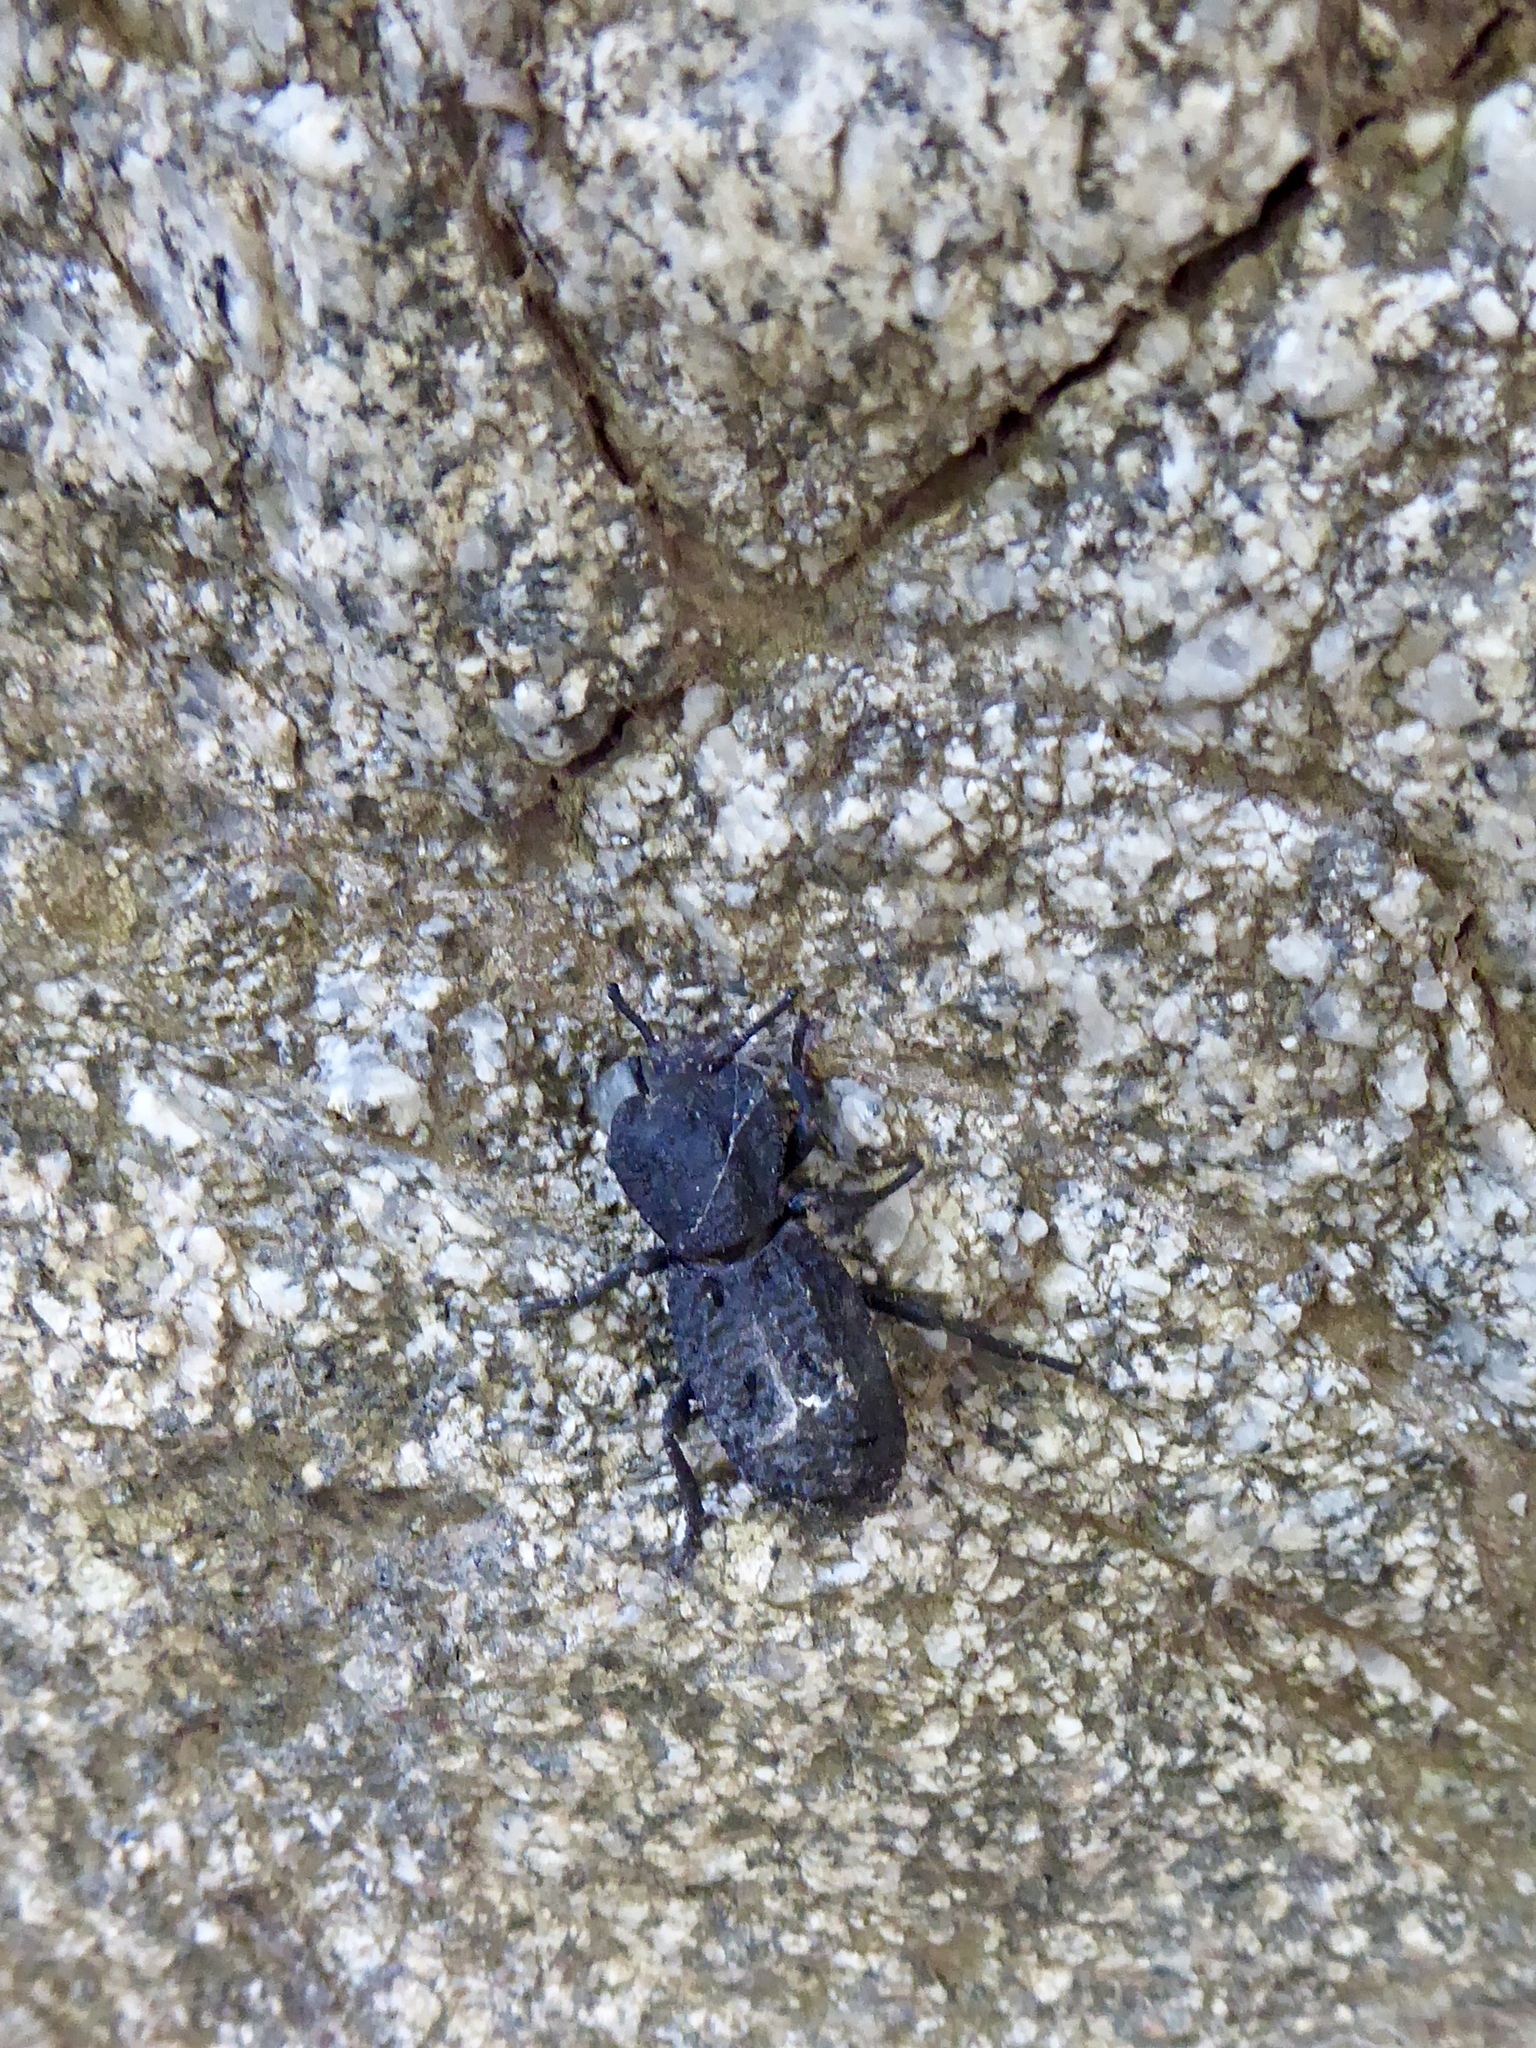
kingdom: Animalia
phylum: Arthropoda
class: Insecta
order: Coleoptera
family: Zopheridae
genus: Phloeodes
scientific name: Phloeodes diabolicus
